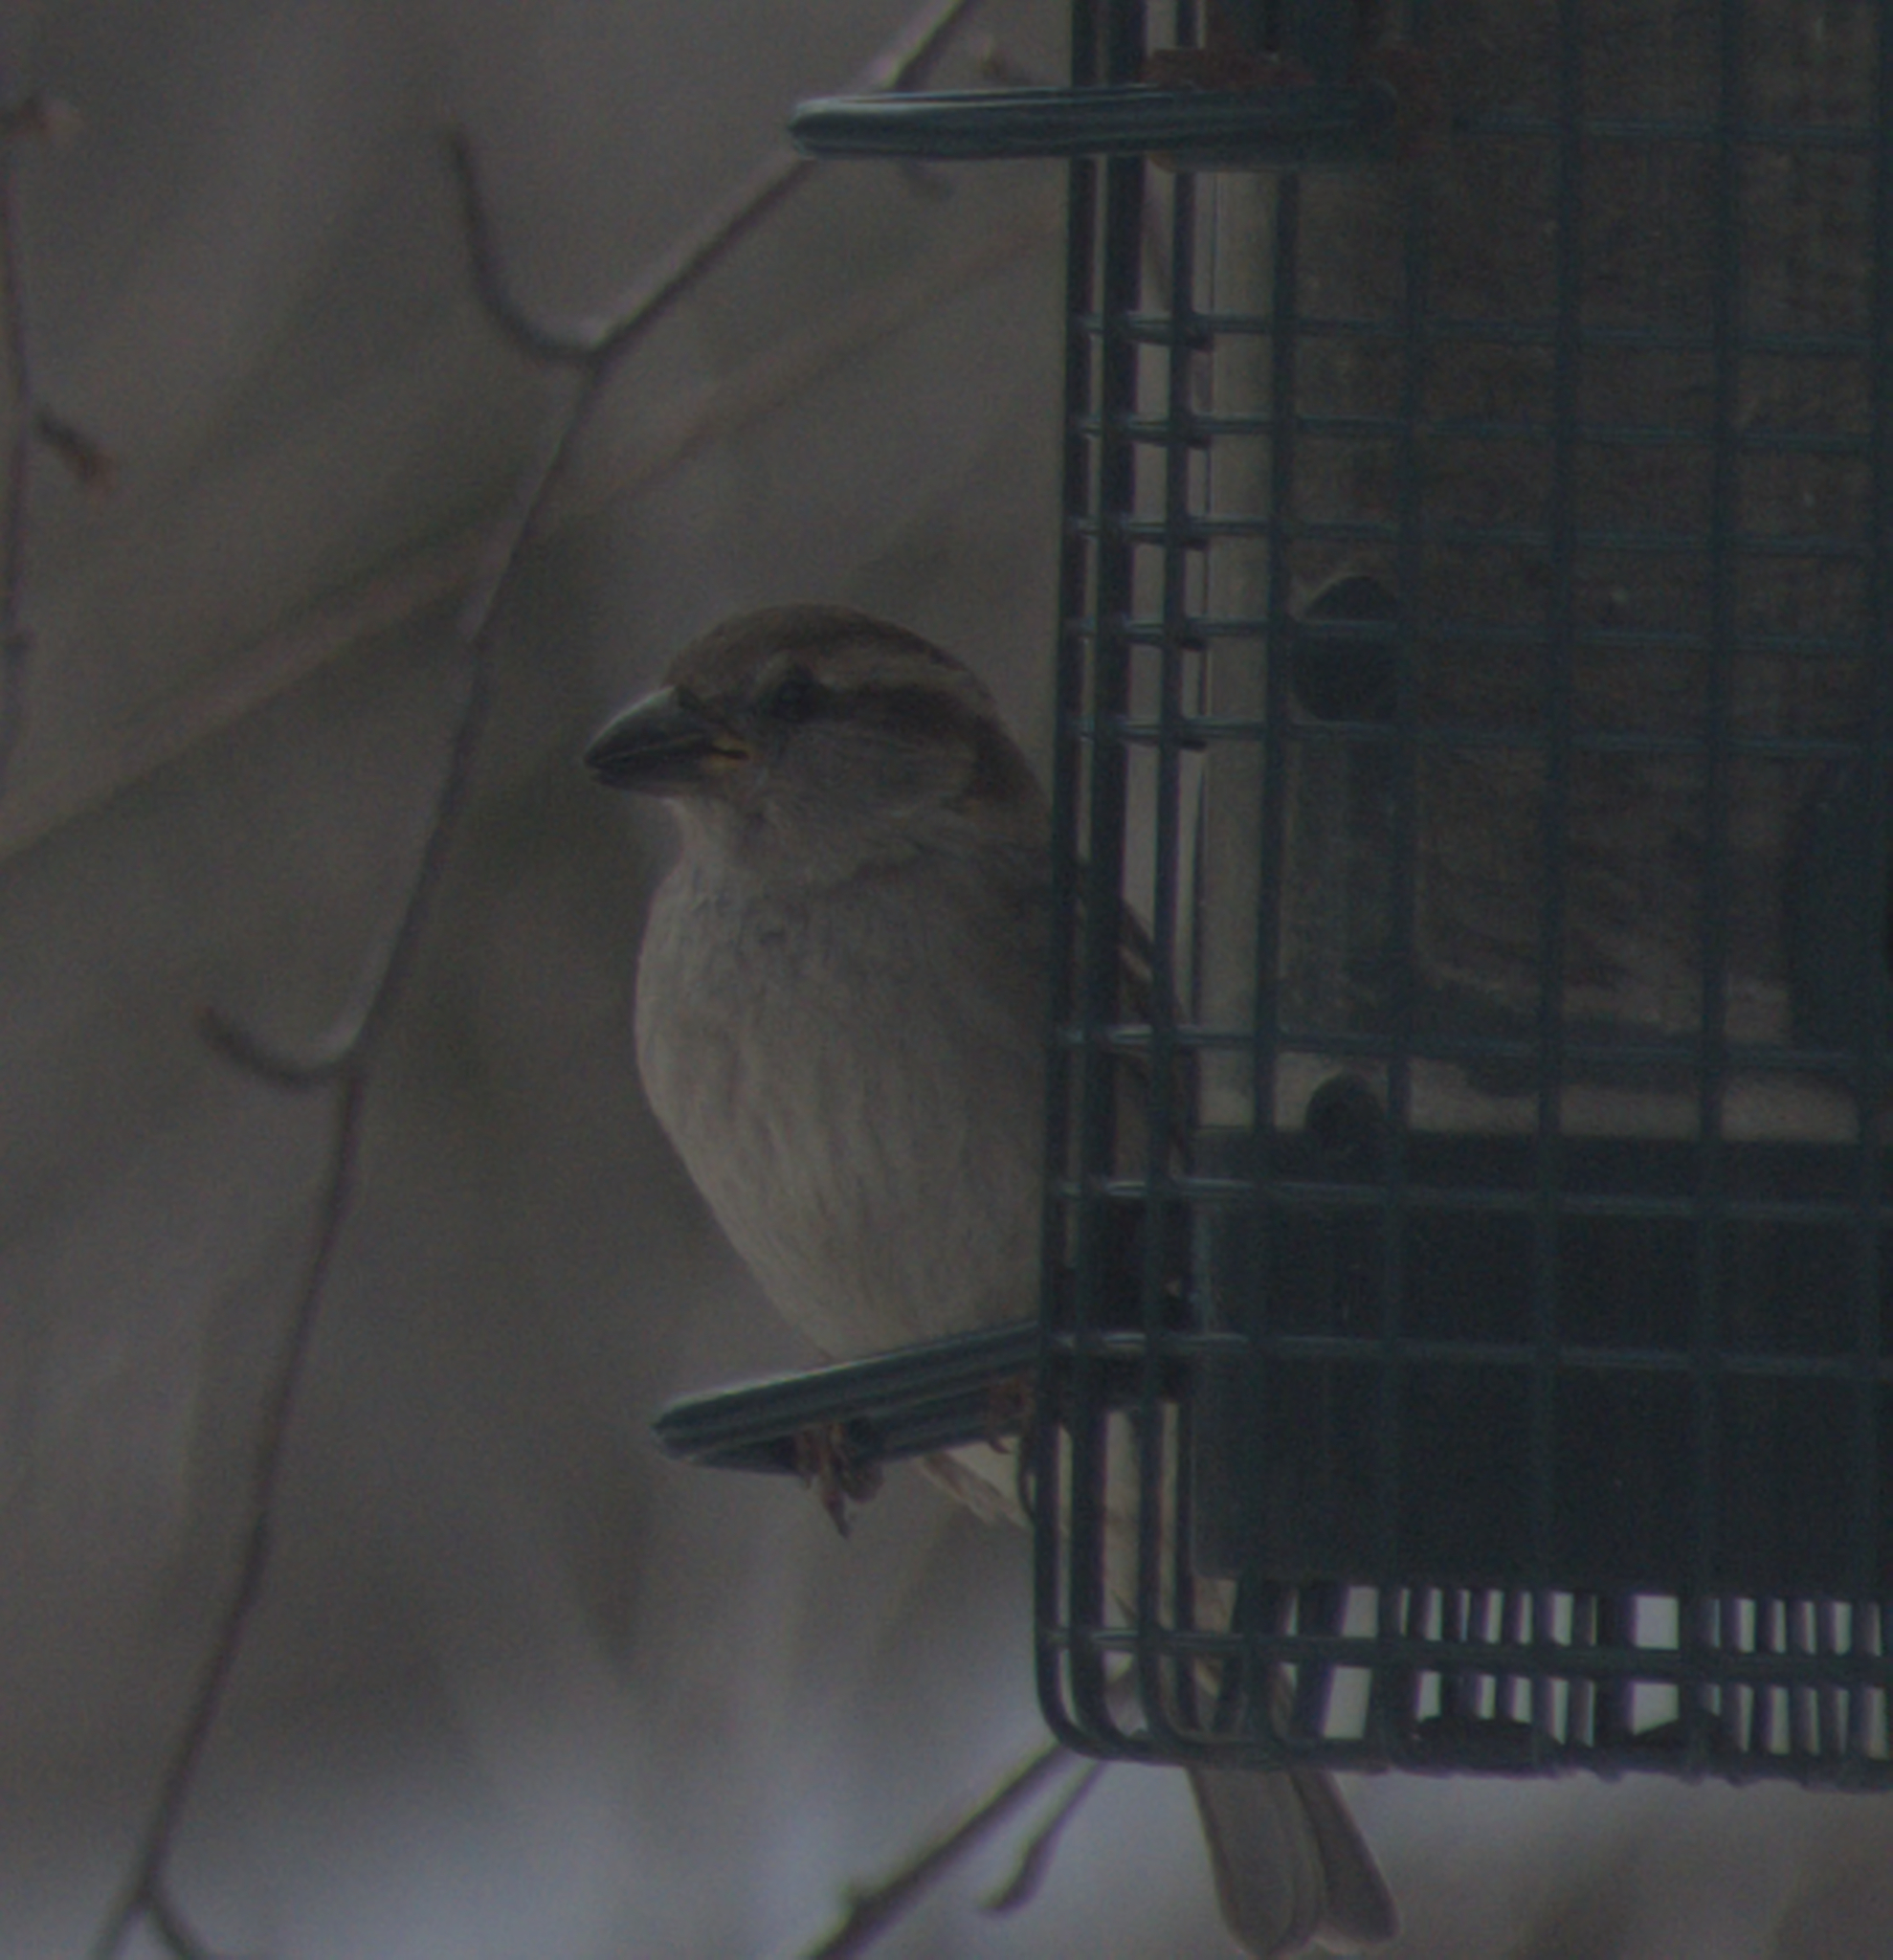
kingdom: Animalia
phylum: Chordata
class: Aves
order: Passeriformes
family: Passeridae
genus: Passer
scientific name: Passer domesticus
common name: House sparrow
